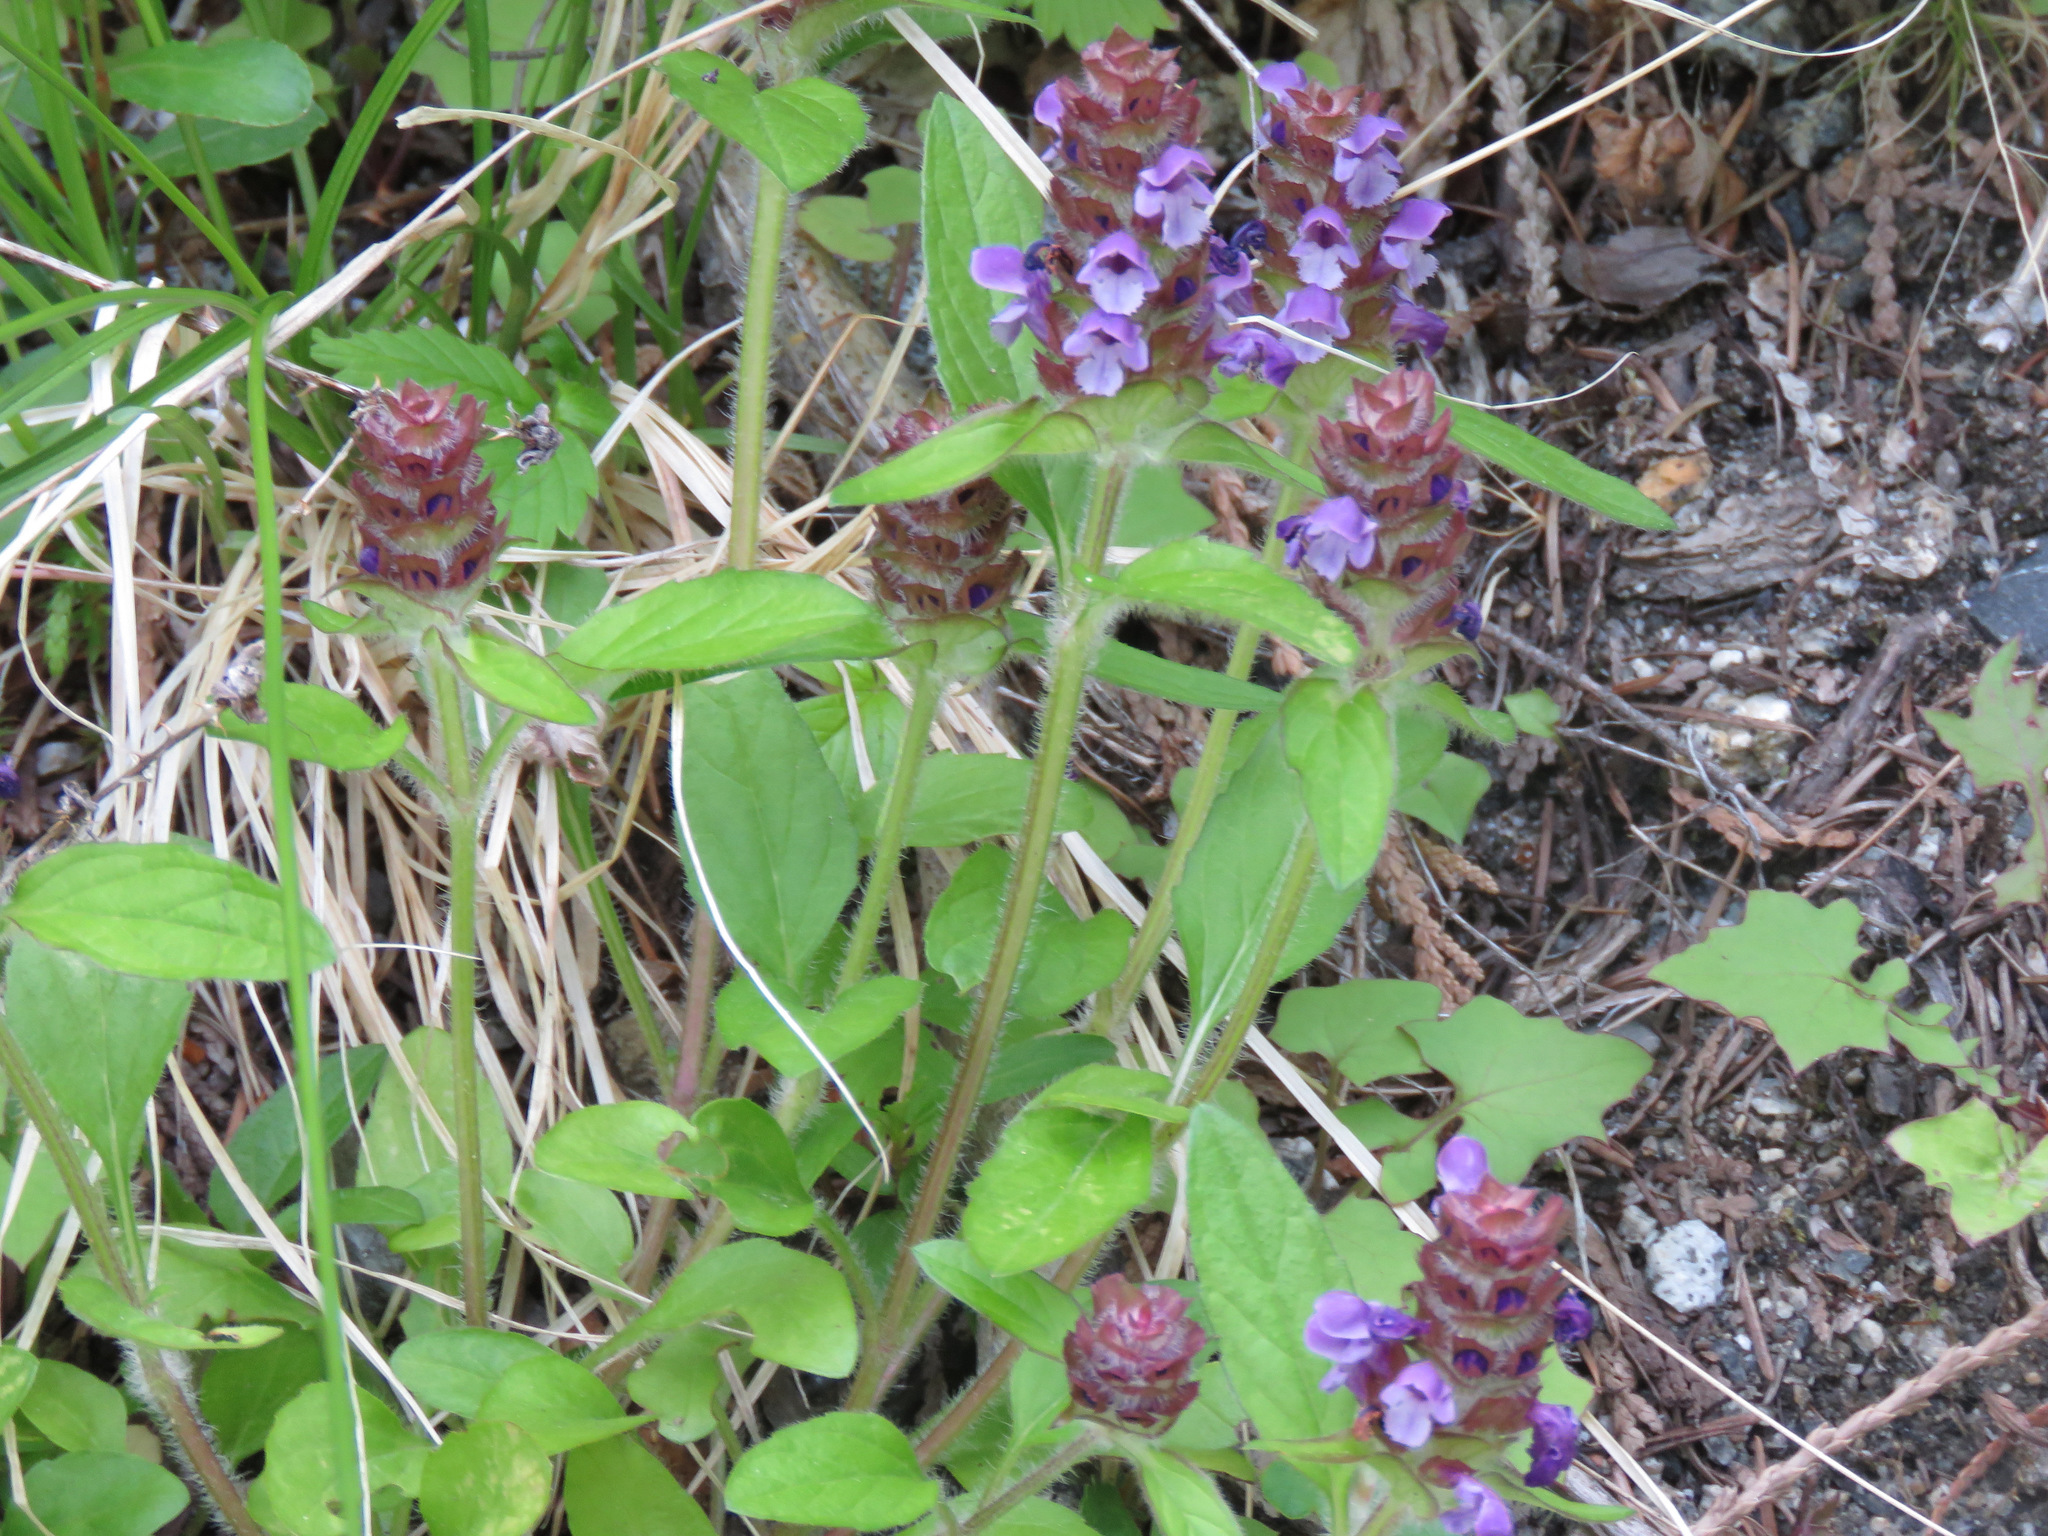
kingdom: Plantae
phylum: Tracheophyta
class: Magnoliopsida
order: Lamiales
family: Lamiaceae
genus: Prunella
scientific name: Prunella vulgaris
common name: Heal-all
